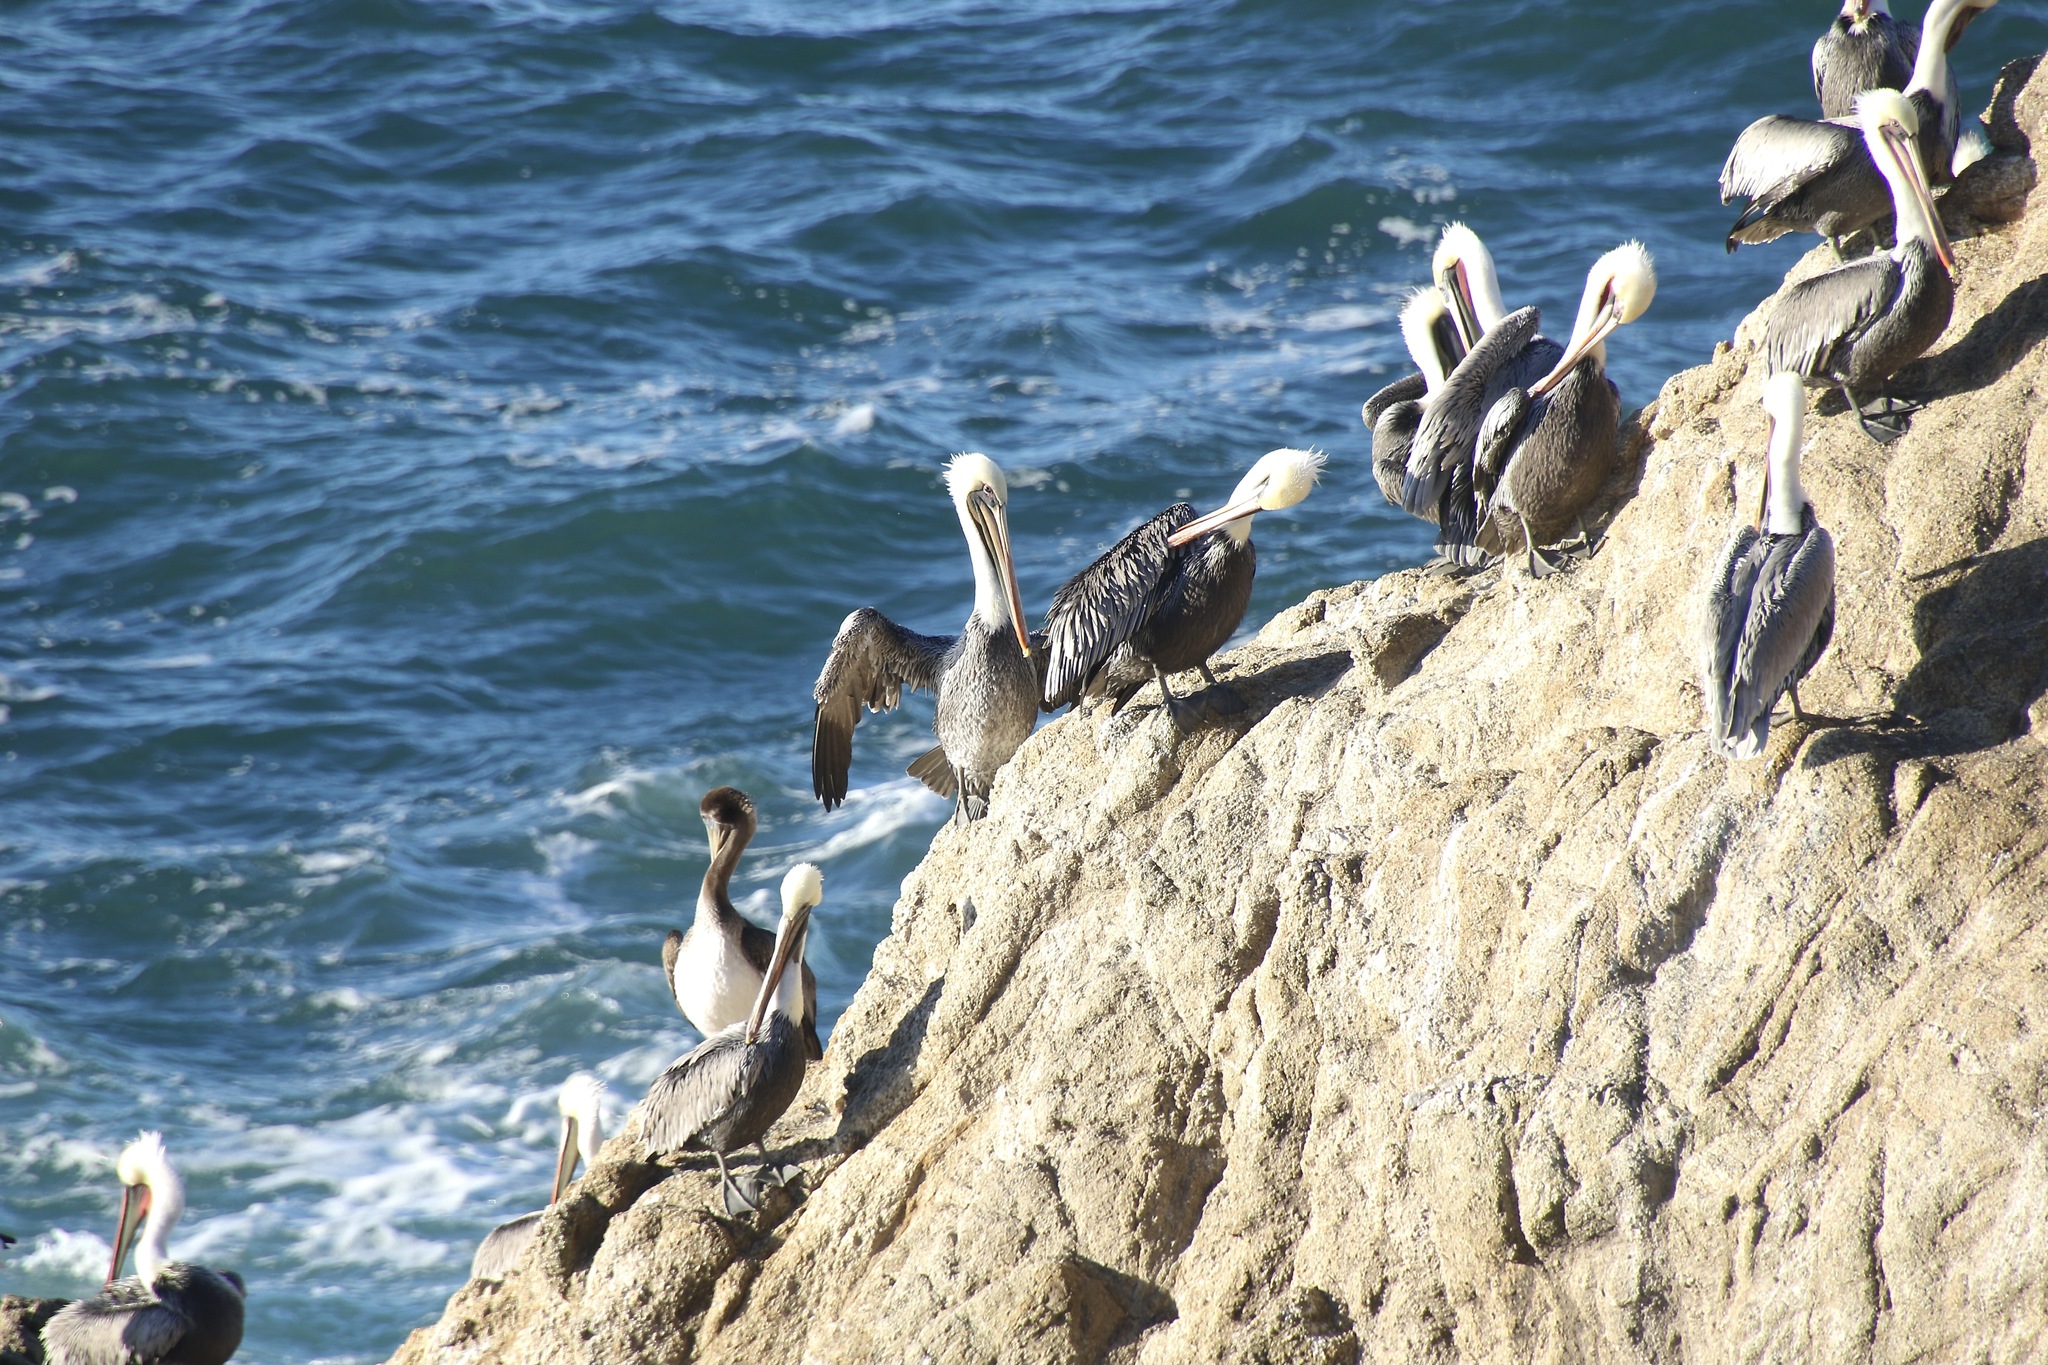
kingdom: Animalia
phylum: Chordata
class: Aves
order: Pelecaniformes
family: Pelecanidae
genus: Pelecanus
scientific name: Pelecanus occidentalis
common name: Brown pelican
